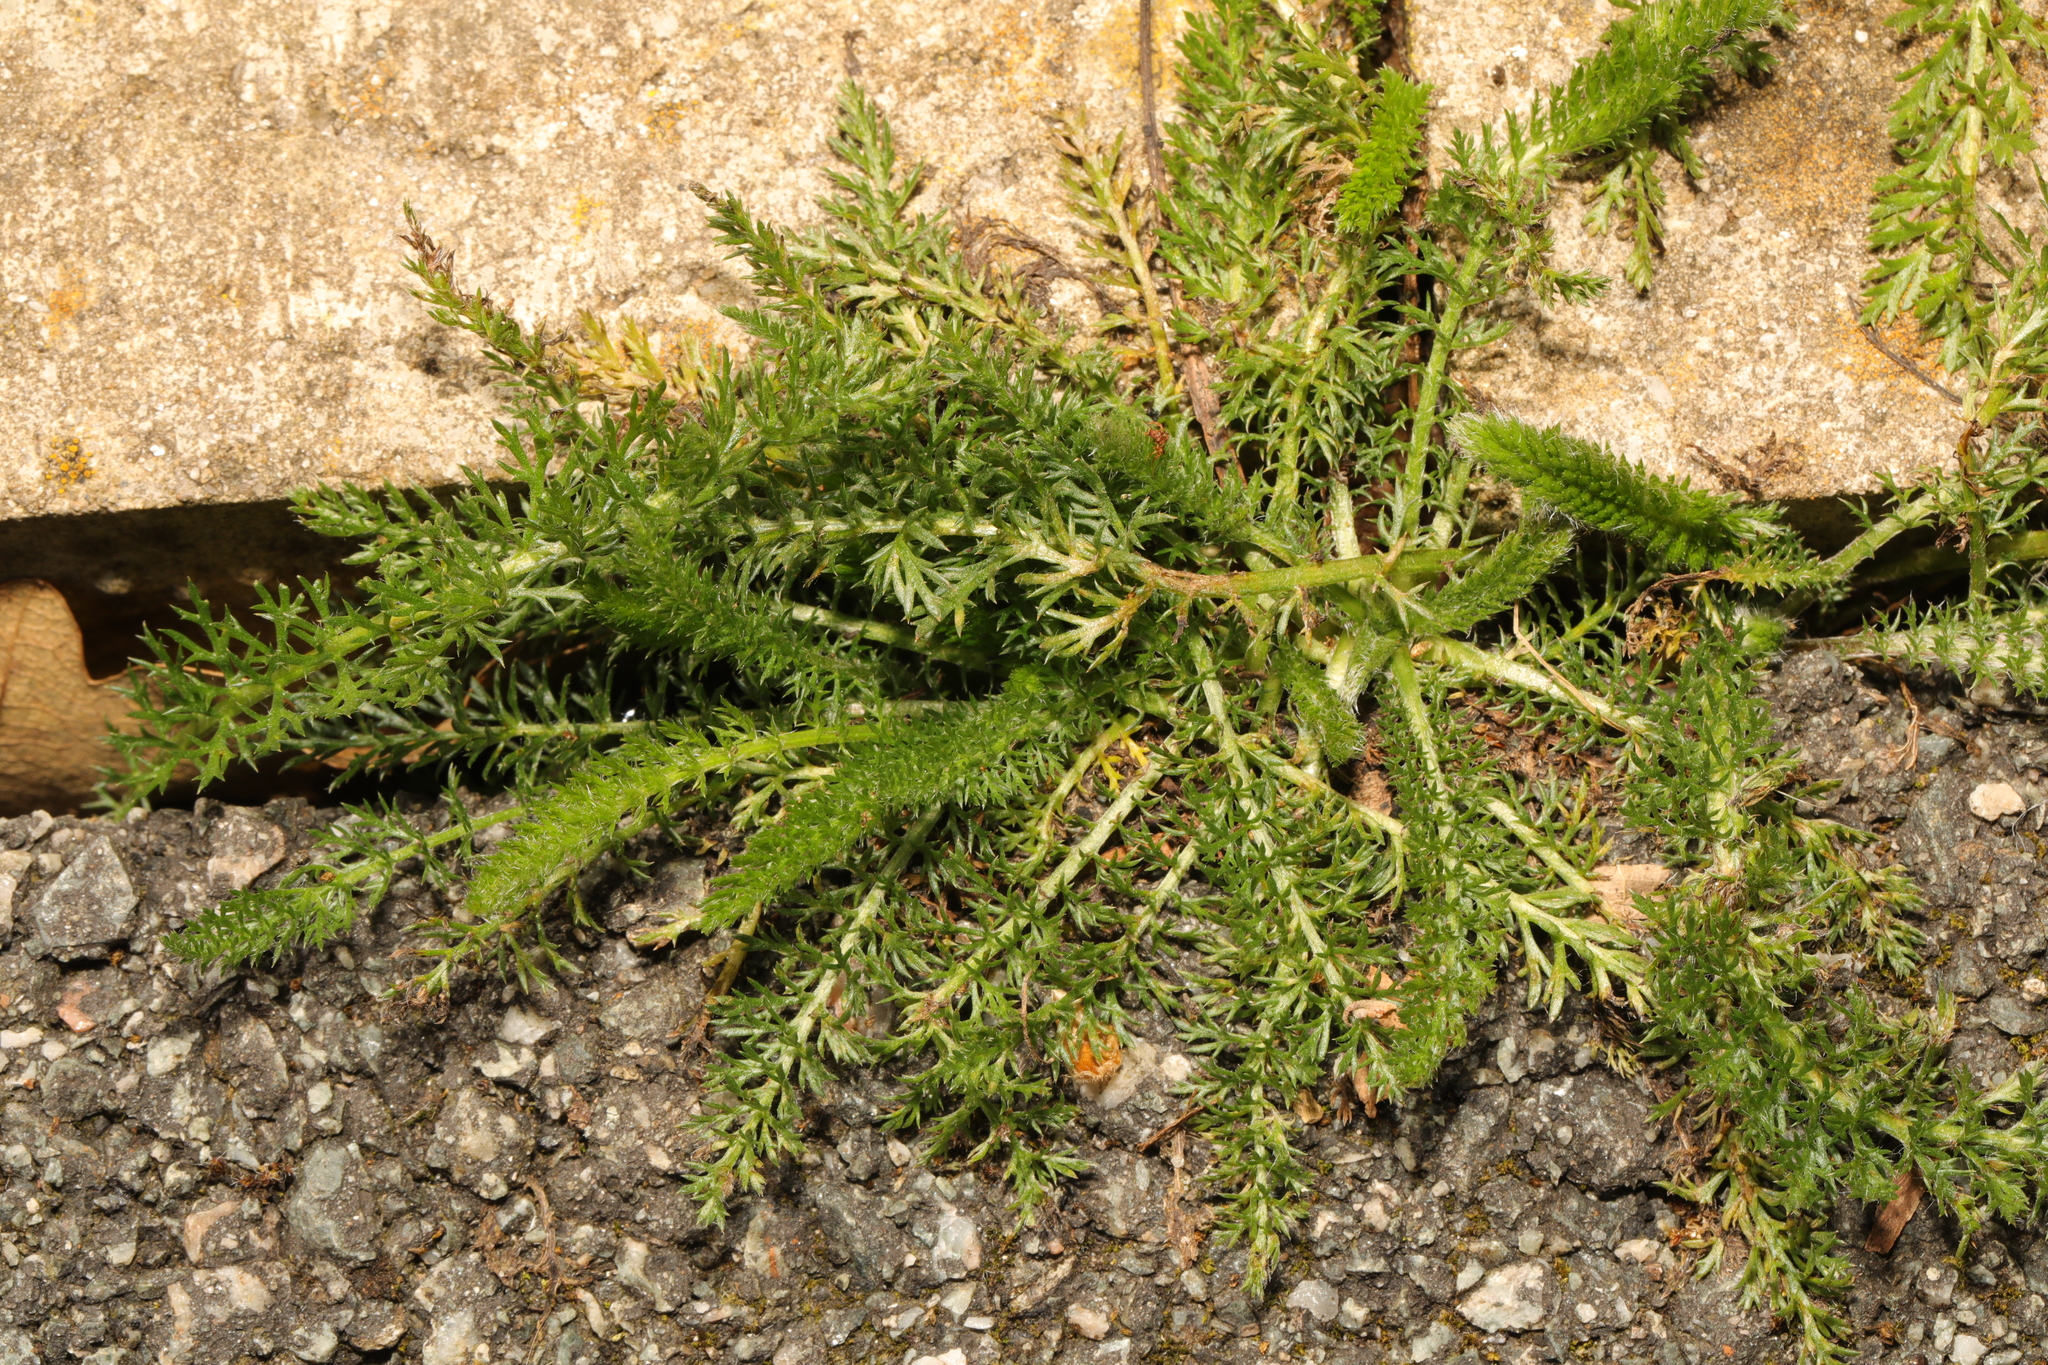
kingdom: Plantae
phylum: Tracheophyta
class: Magnoliopsida
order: Asterales
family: Asteraceae
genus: Achillea
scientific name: Achillea millefolium
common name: Yarrow
